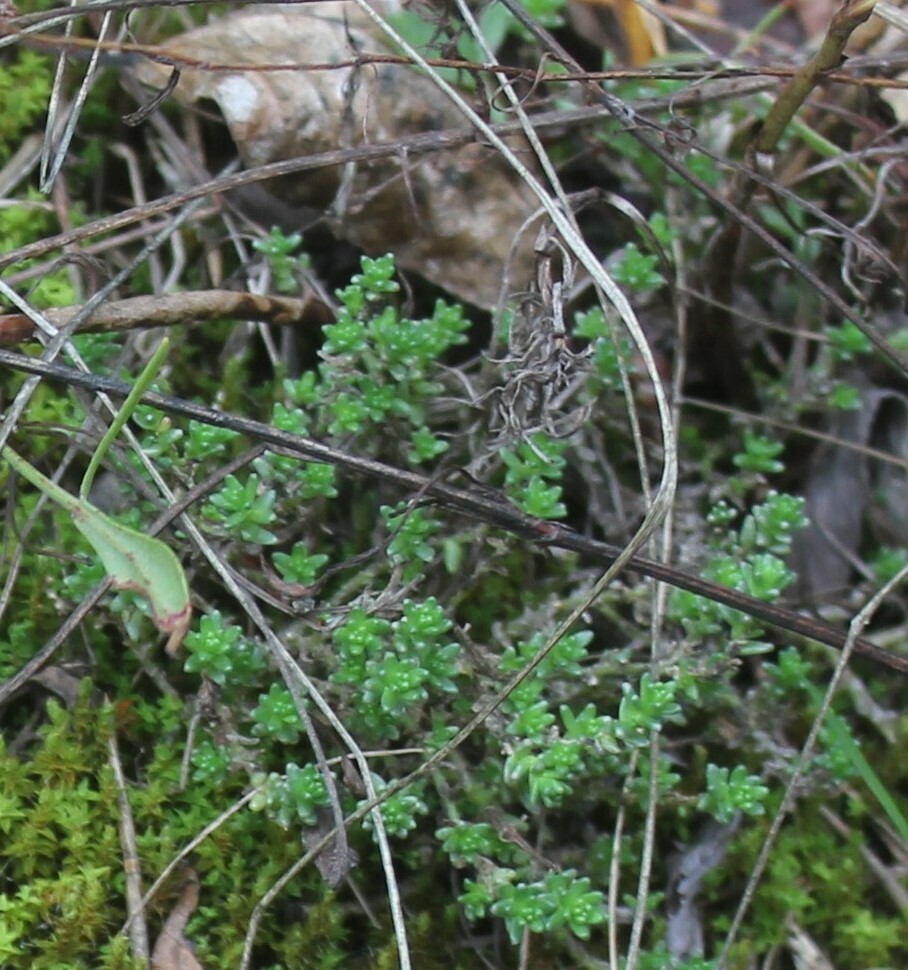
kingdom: Plantae
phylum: Tracheophyta
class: Magnoliopsida
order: Saxifragales
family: Crassulaceae
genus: Sedum
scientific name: Sedum acre
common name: Biting stonecrop
